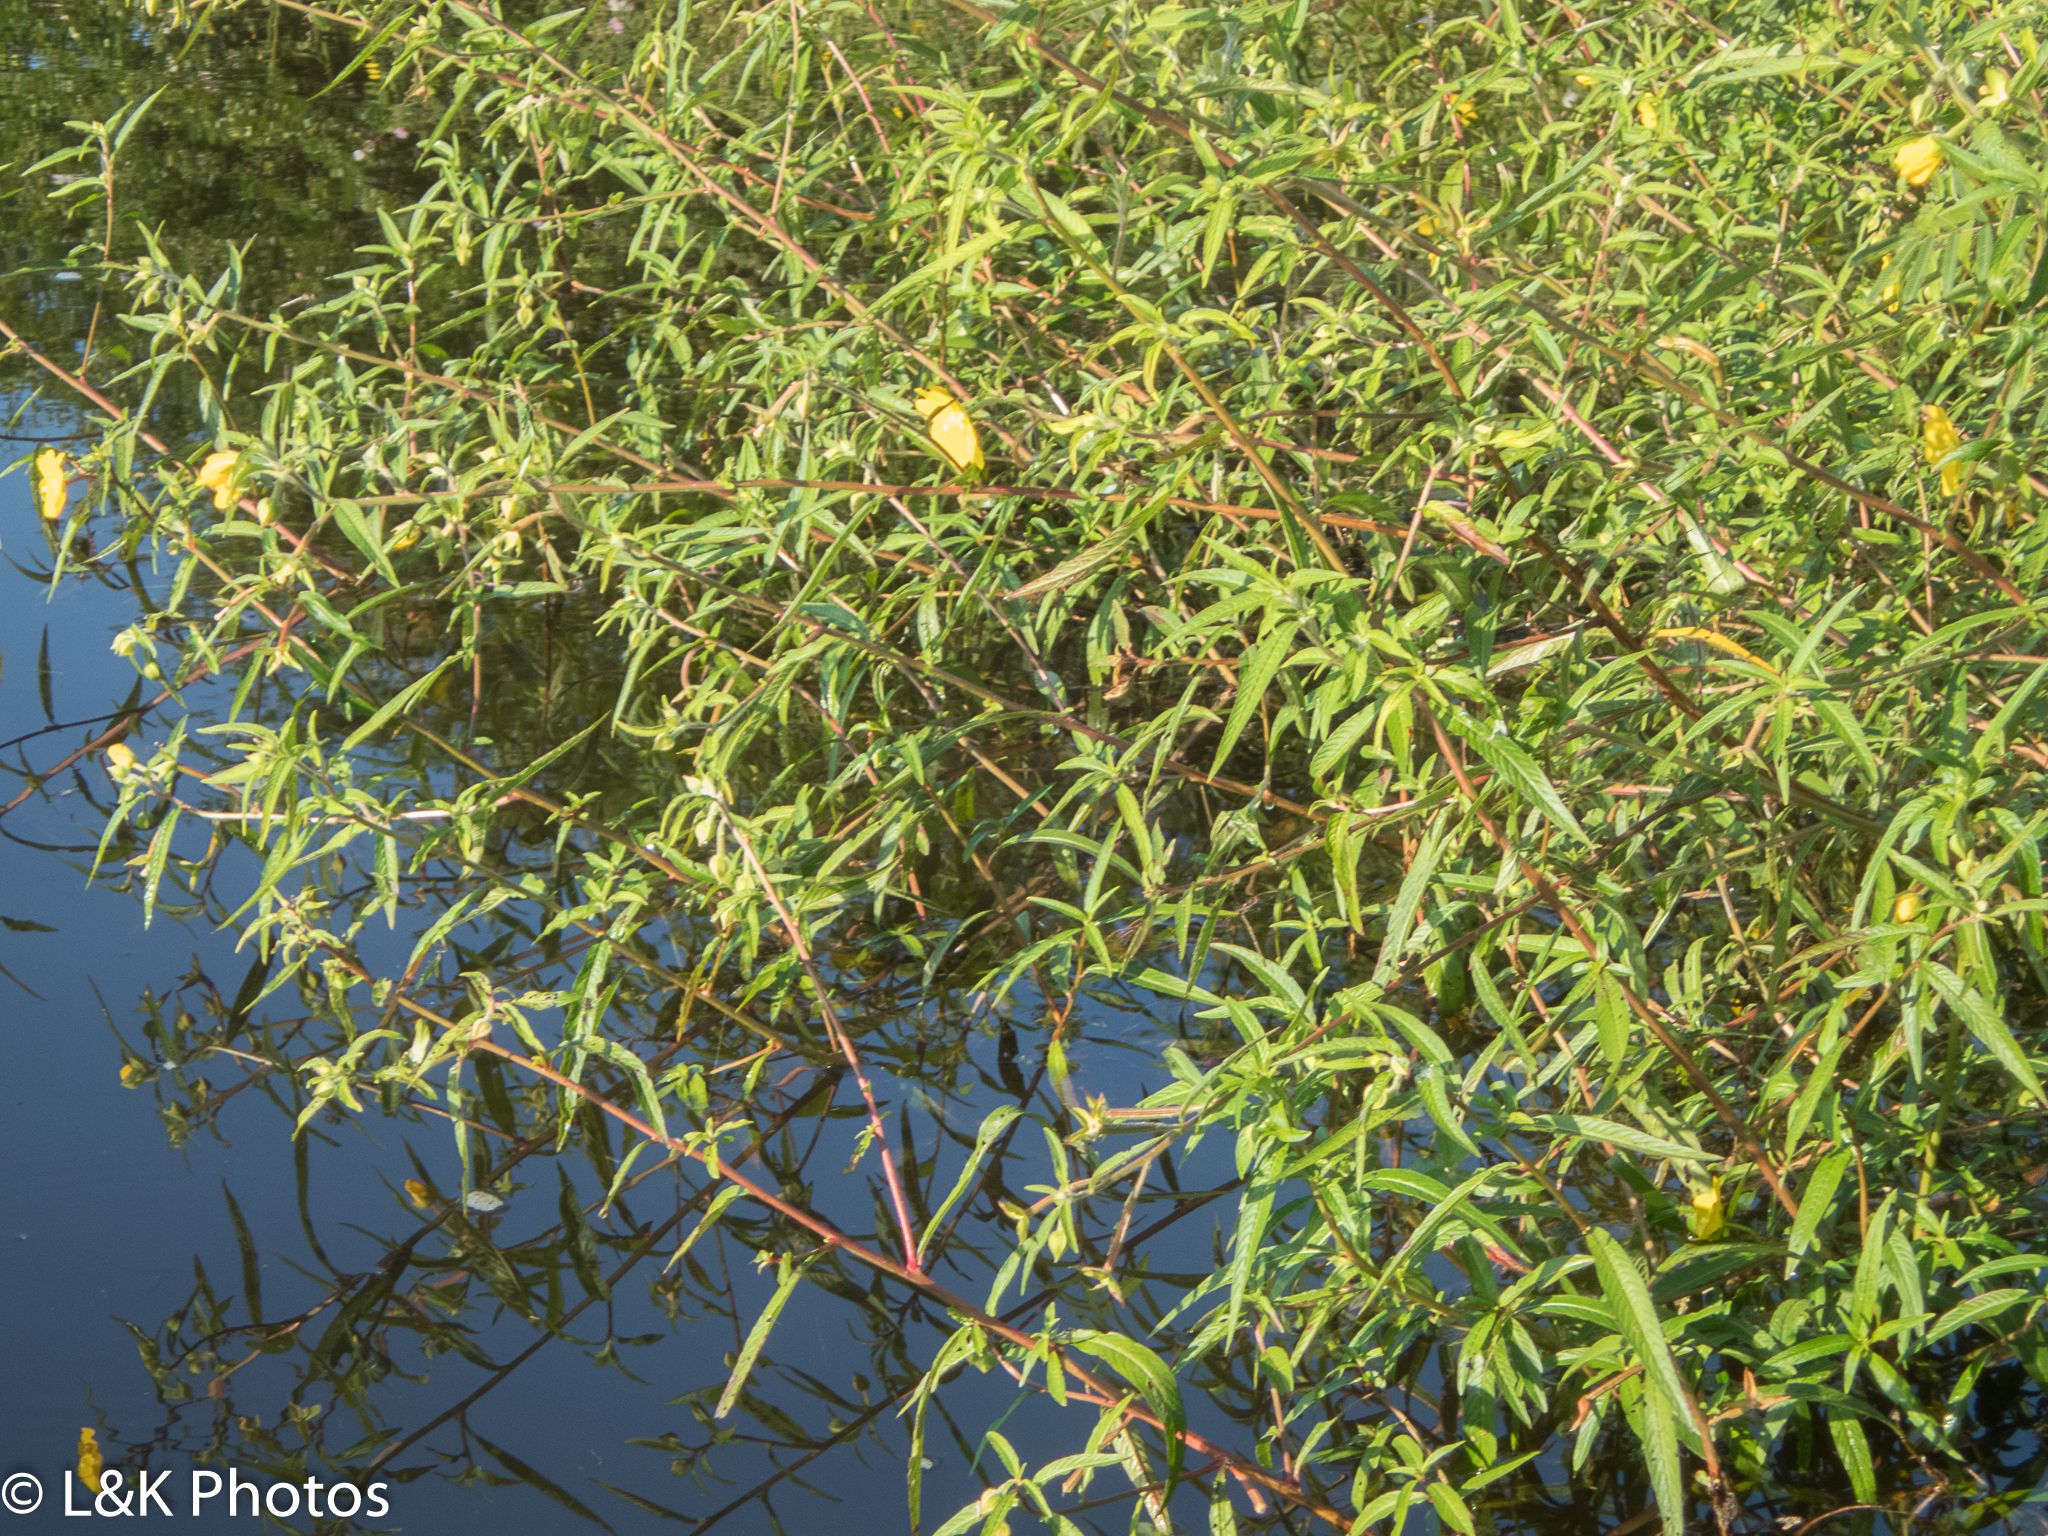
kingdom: Plantae
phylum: Tracheophyta
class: Magnoliopsida
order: Myrtales
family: Onagraceae
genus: Ludwigia
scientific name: Ludwigia octovalvis
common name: Water-primrose
